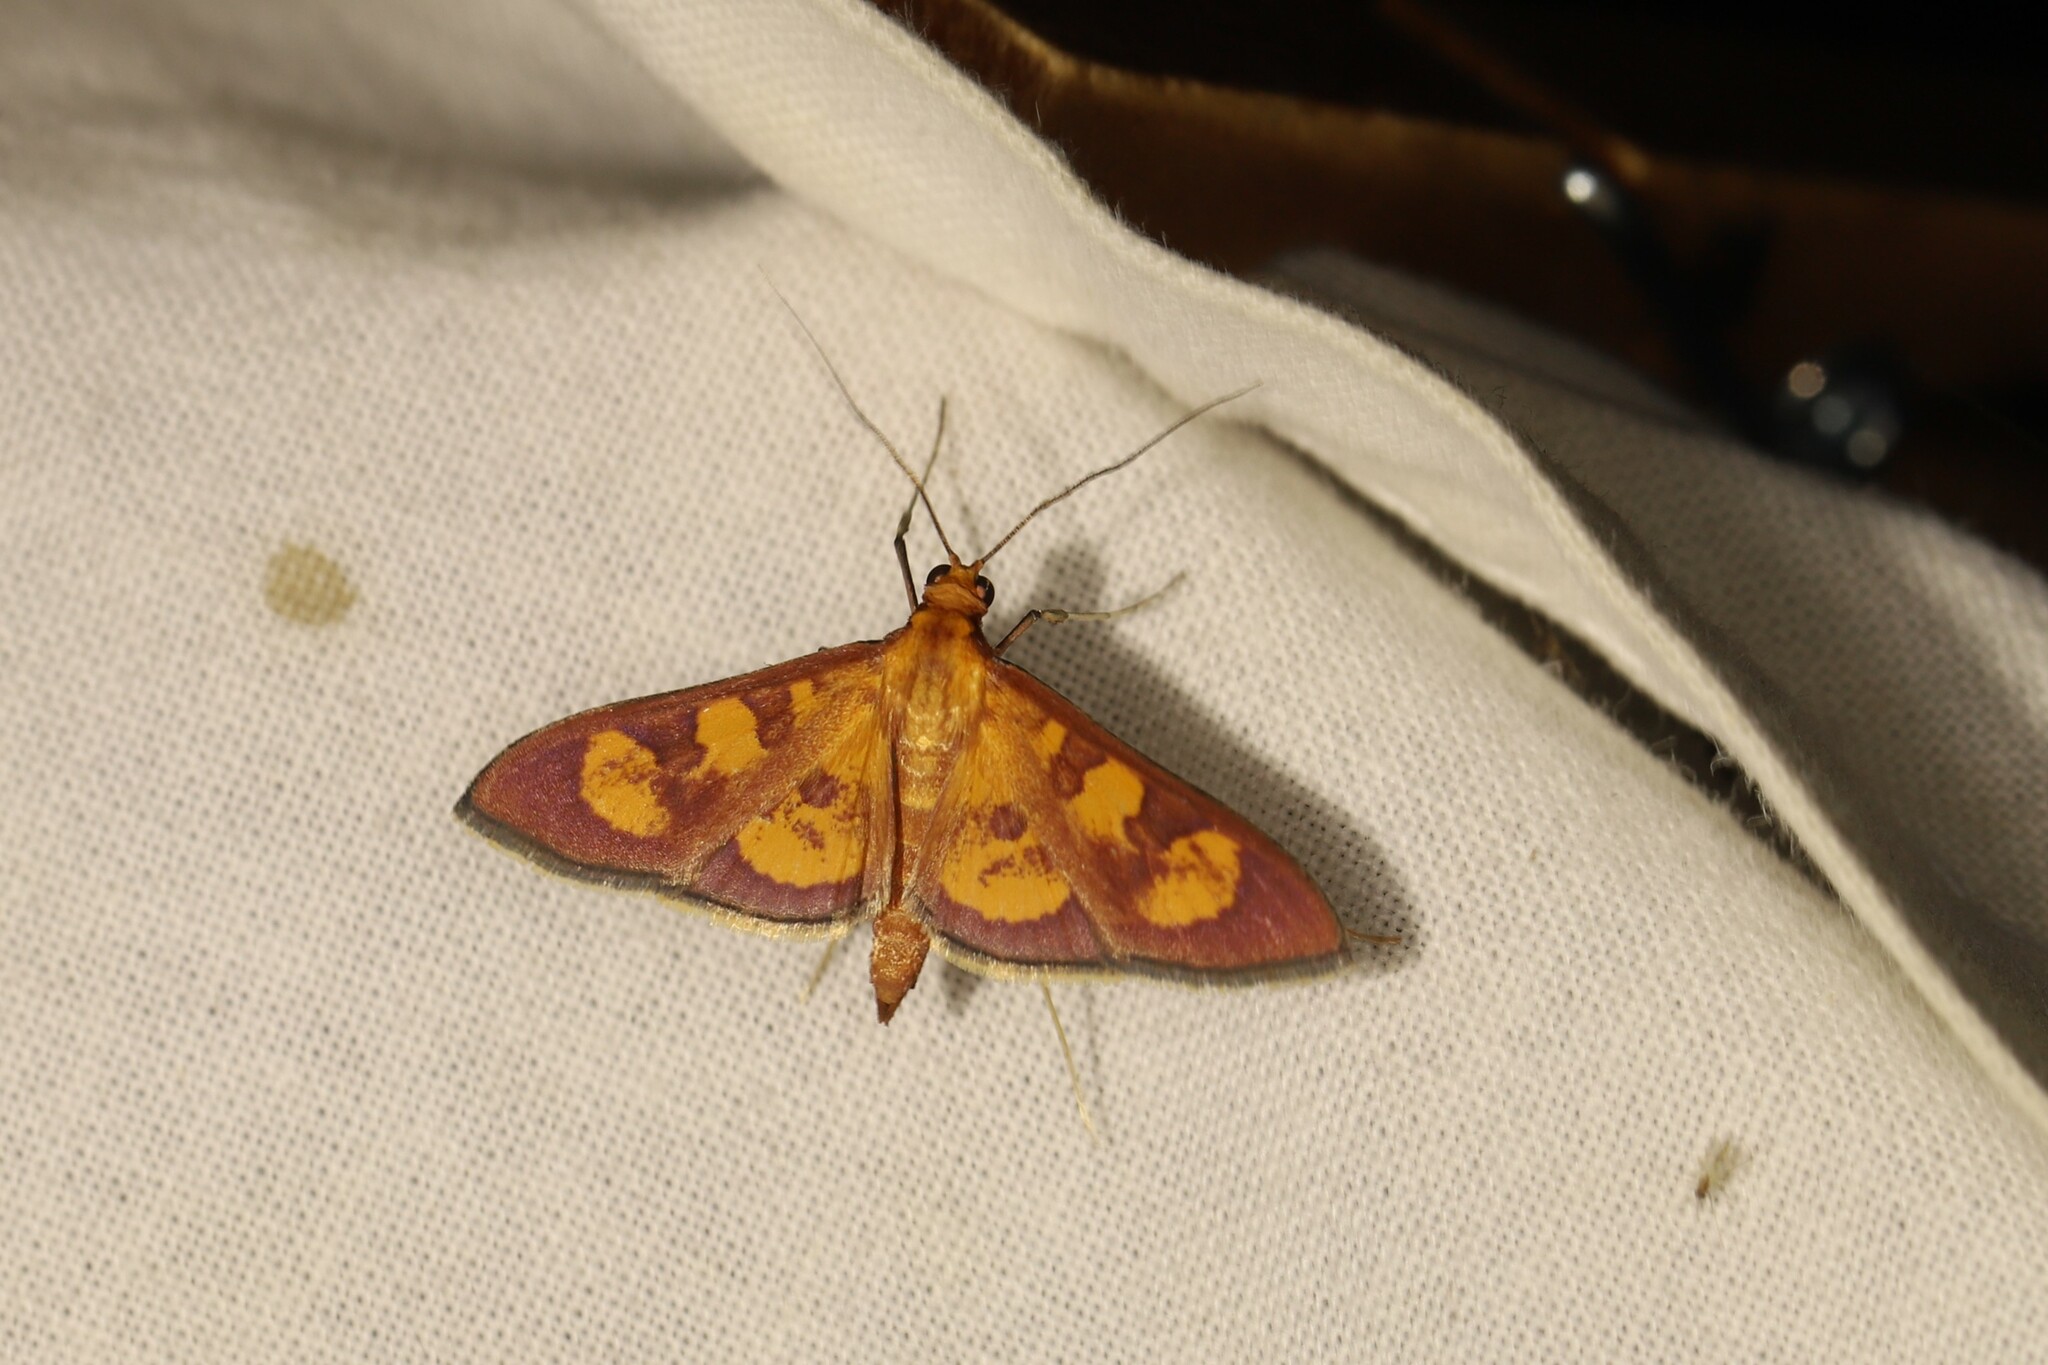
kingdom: Animalia
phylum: Arthropoda
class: Insecta
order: Lepidoptera
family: Crambidae
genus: Trithyris
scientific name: Trithyris
